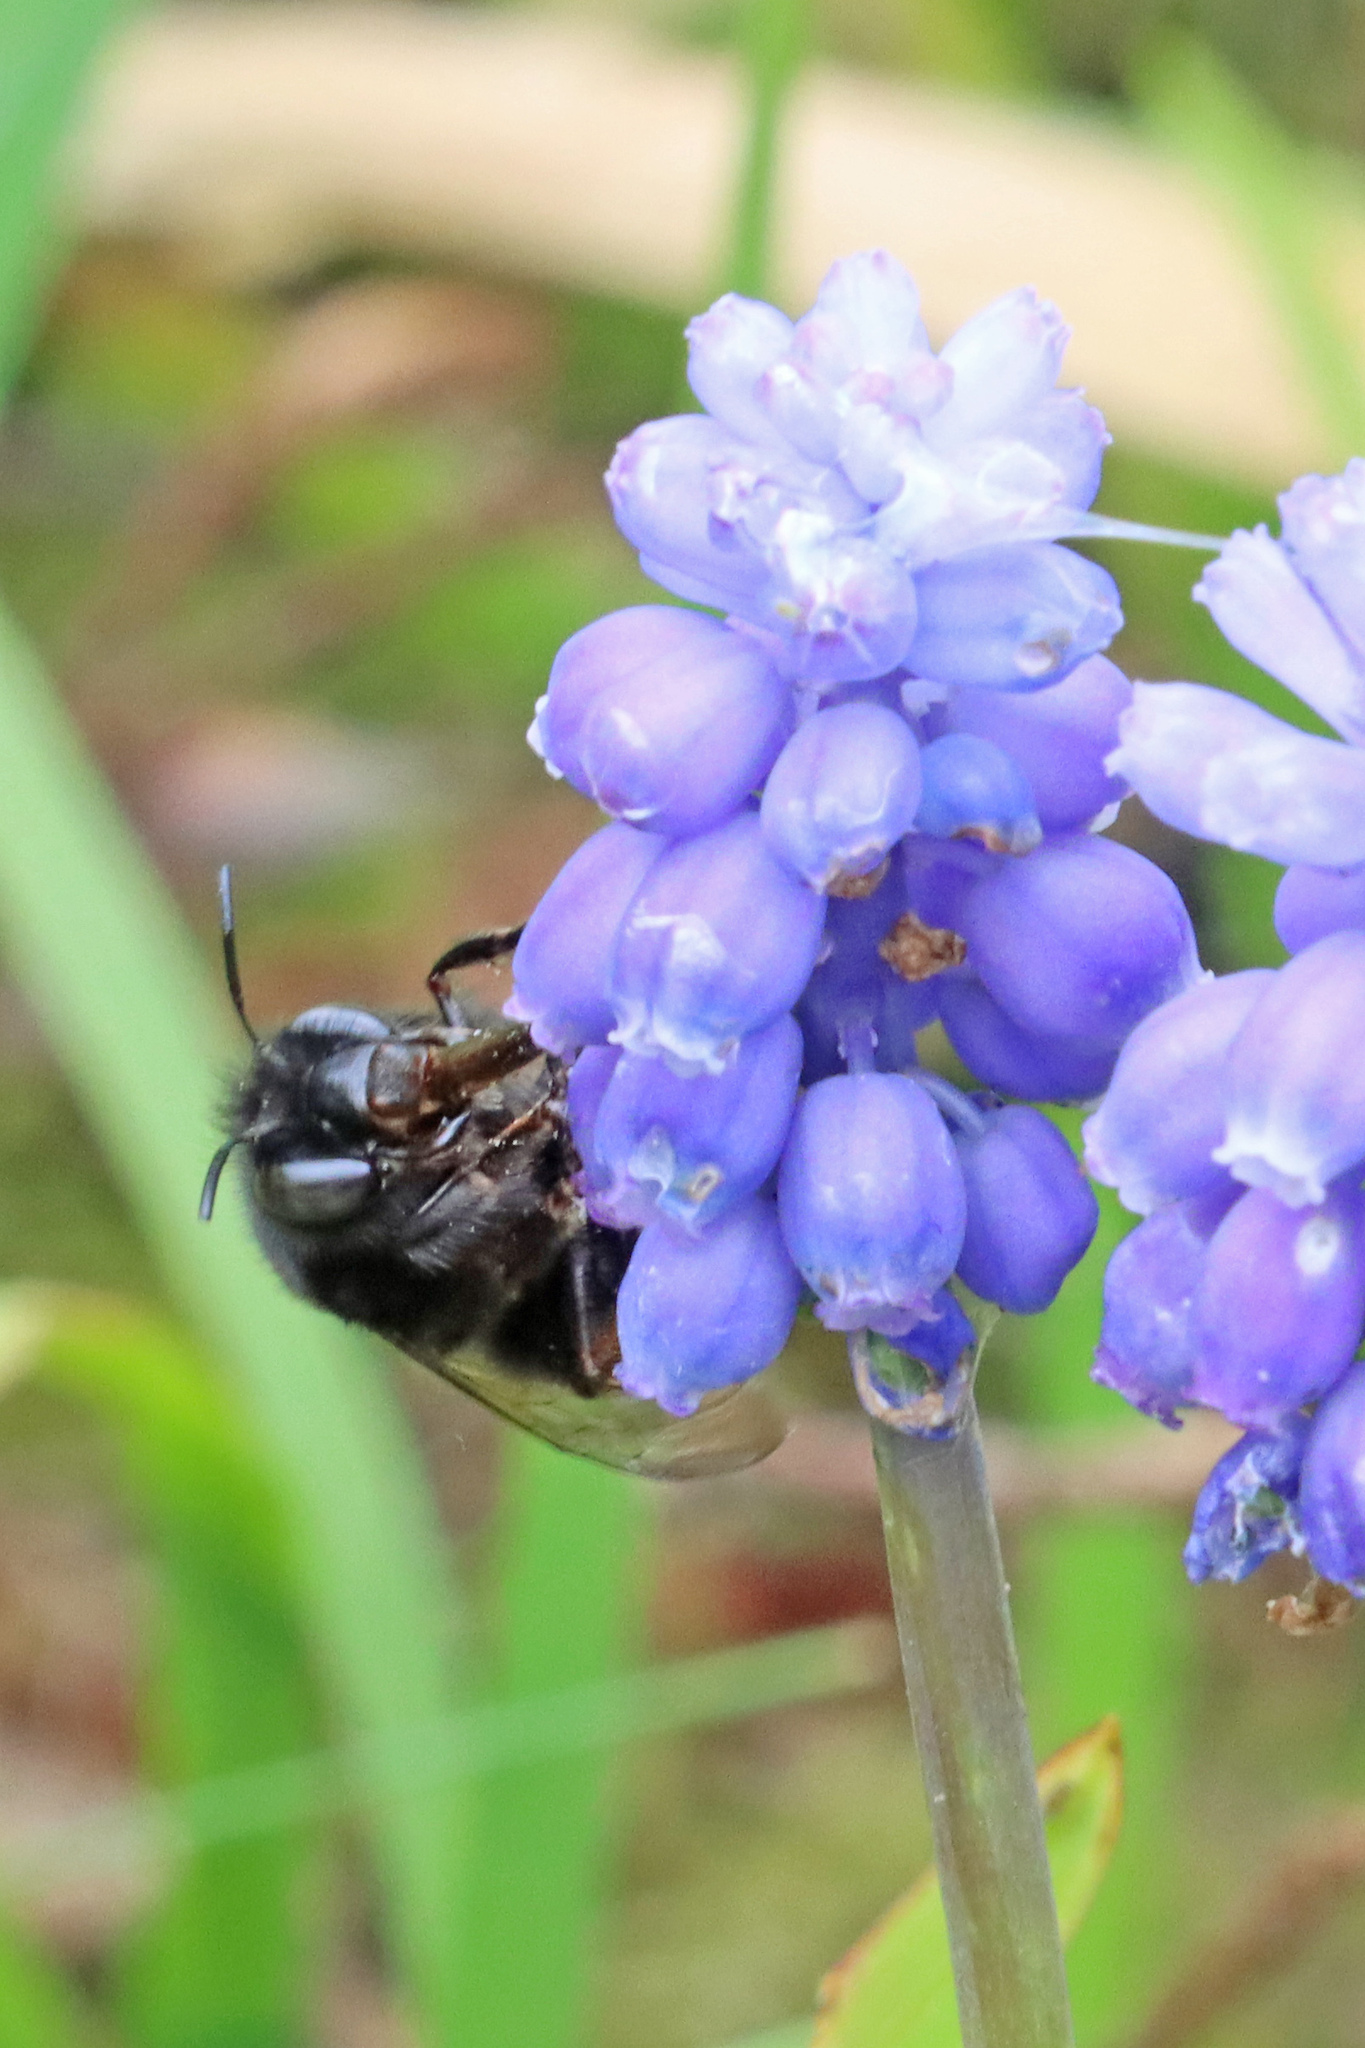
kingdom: Animalia
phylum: Arthropoda
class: Insecta
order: Hymenoptera
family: Apidae
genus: Anthophora
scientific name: Anthophora plumipes
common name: Hairy-footed flower bee
